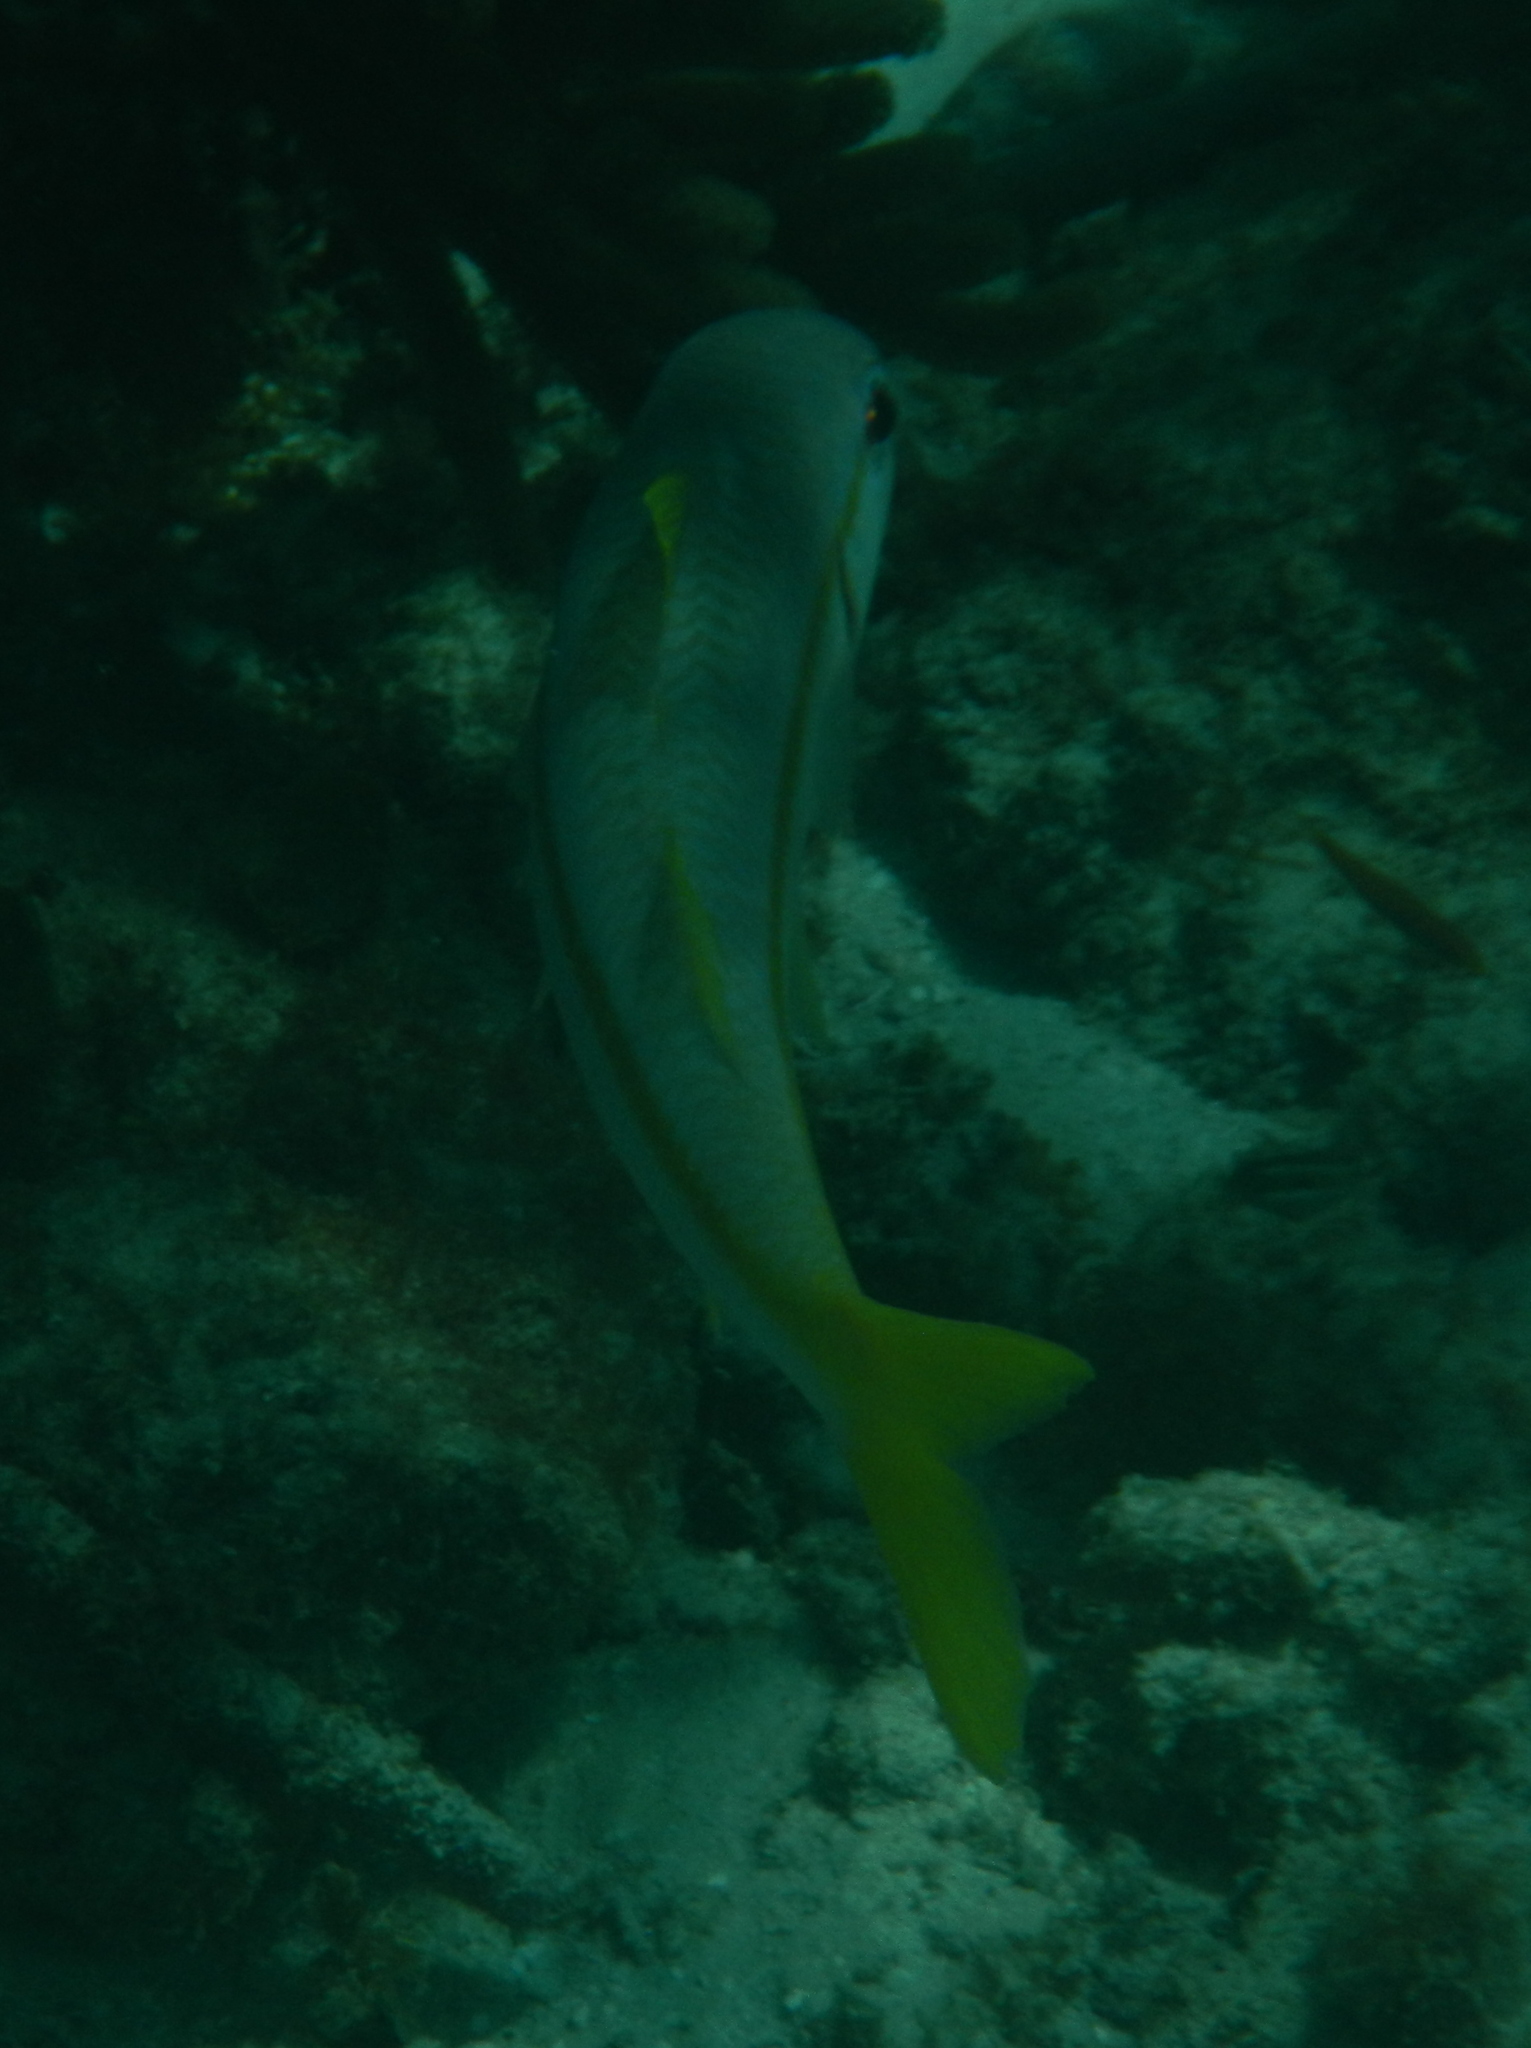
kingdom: Animalia
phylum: Chordata
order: Perciformes
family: Mullidae
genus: Mulloidichthys
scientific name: Mulloidichthys martinicus
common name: Yellow goatfish
